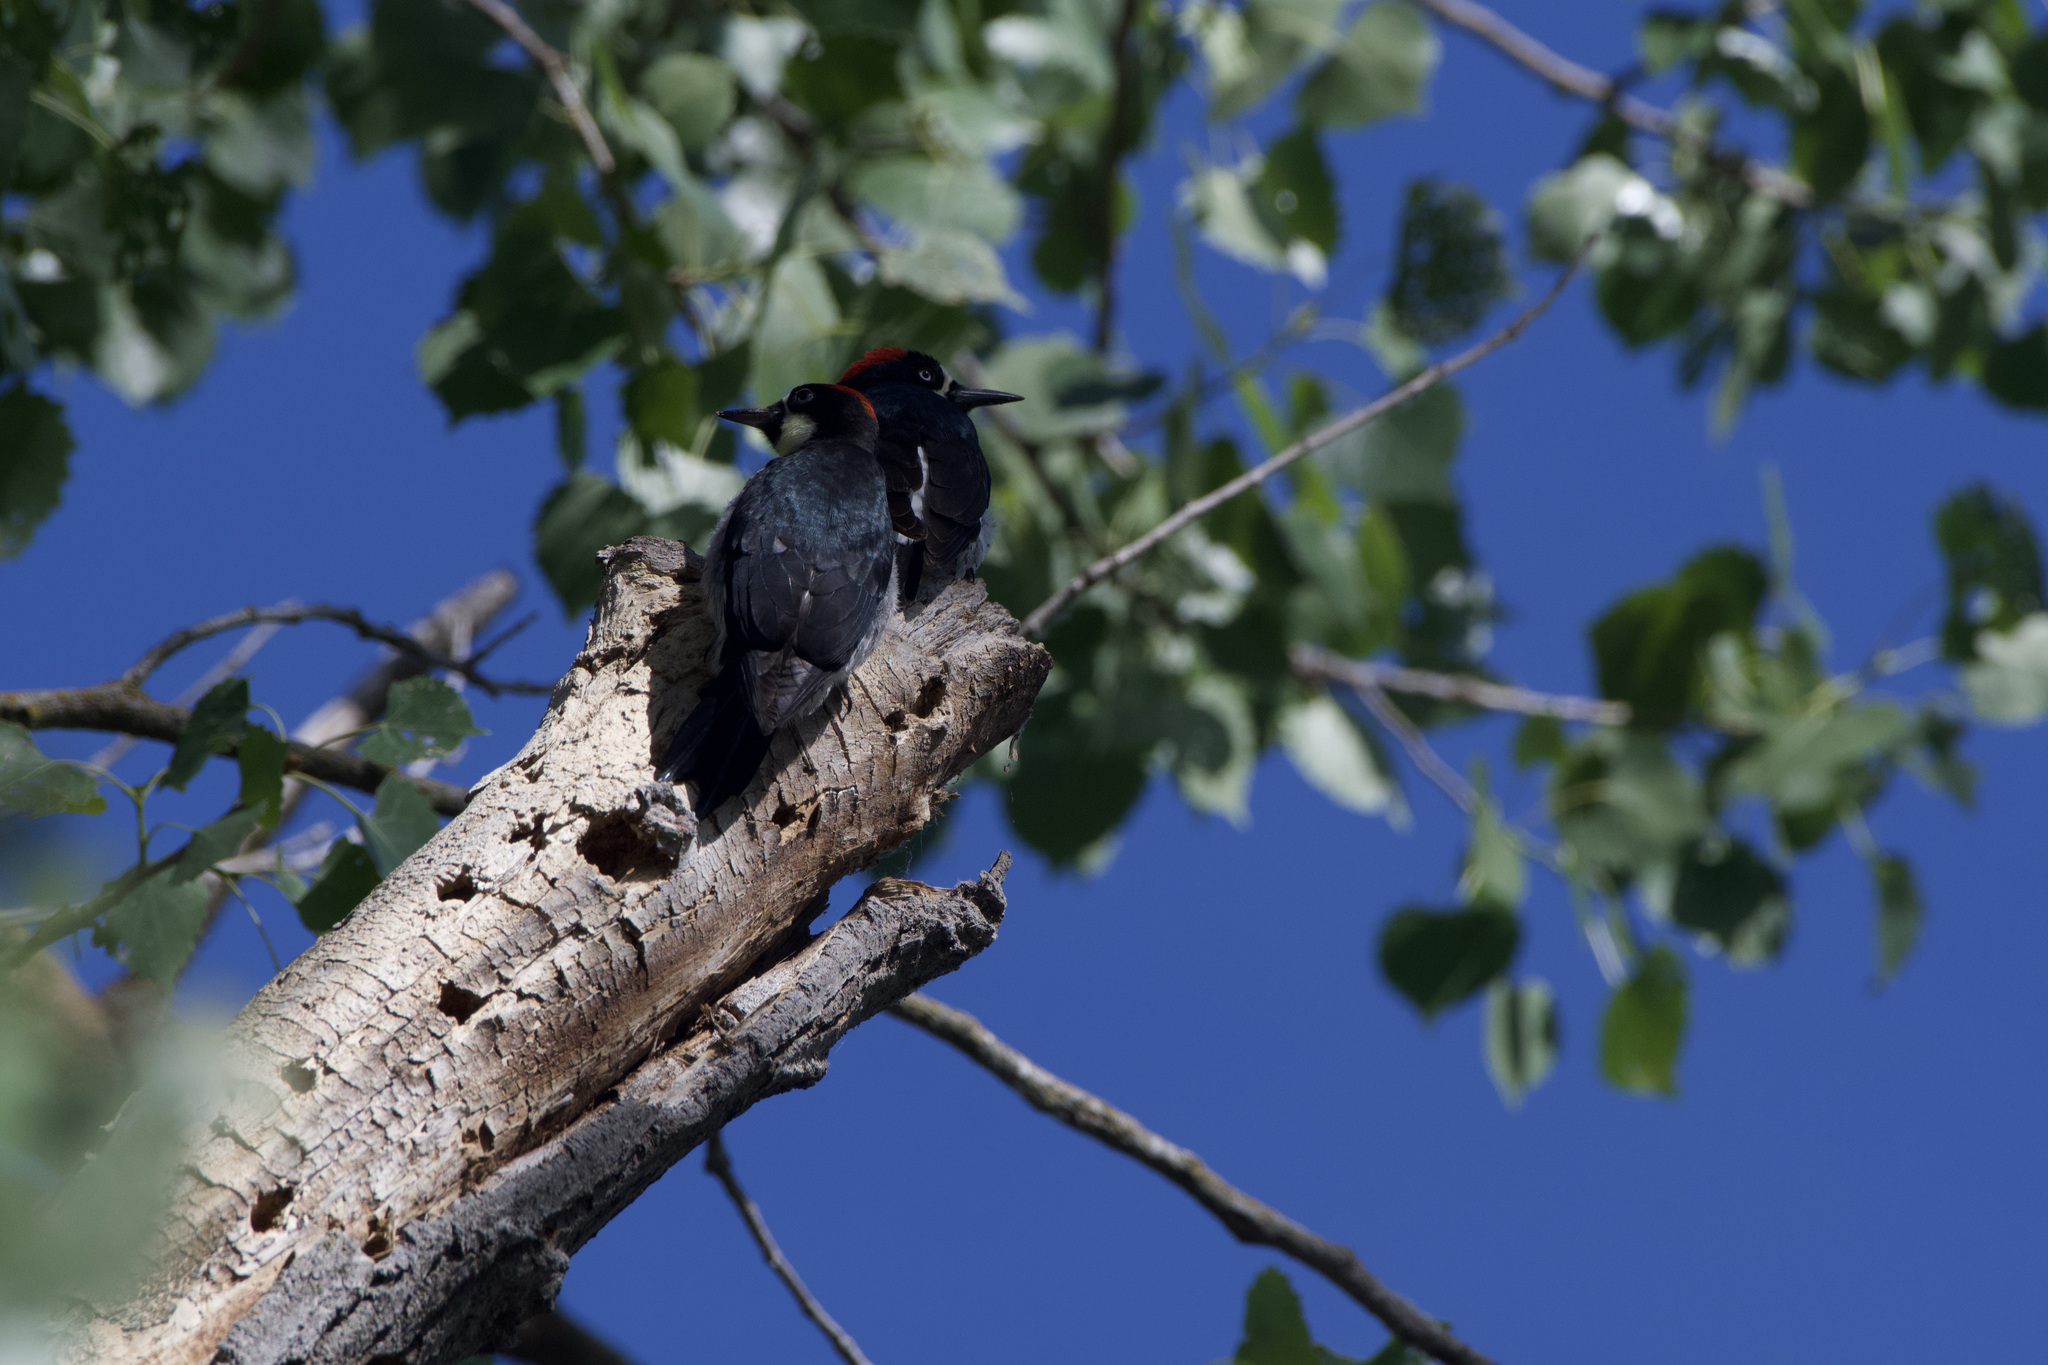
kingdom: Animalia
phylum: Chordata
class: Aves
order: Piciformes
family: Picidae
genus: Melanerpes
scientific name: Melanerpes formicivorus
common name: Acorn woodpecker
